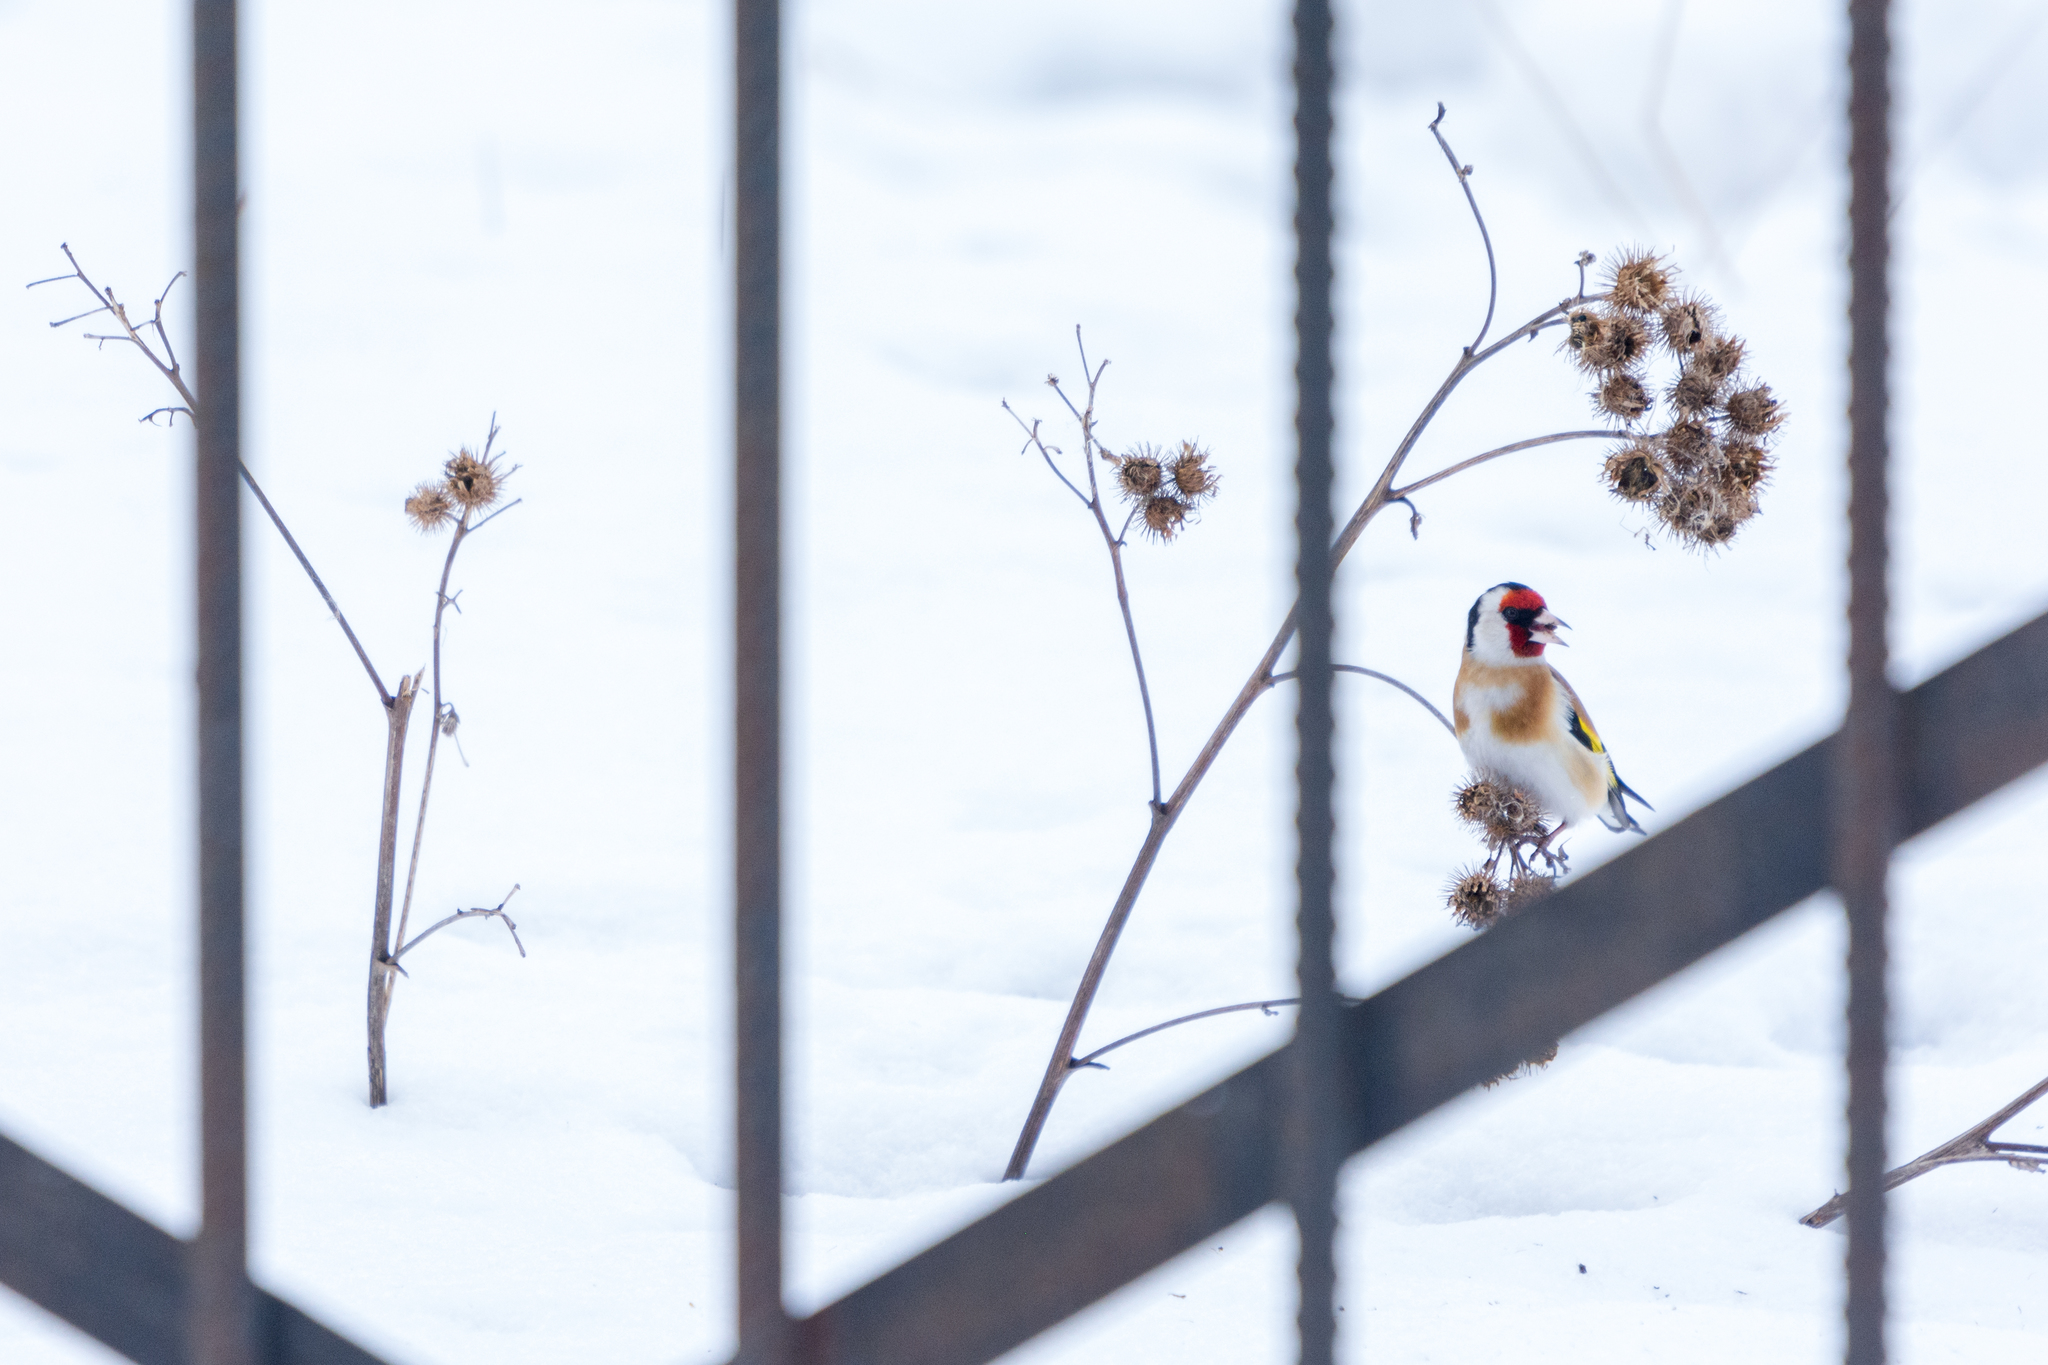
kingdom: Animalia
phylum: Chordata
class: Aves
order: Passeriformes
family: Fringillidae
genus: Carduelis
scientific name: Carduelis carduelis
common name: European goldfinch
